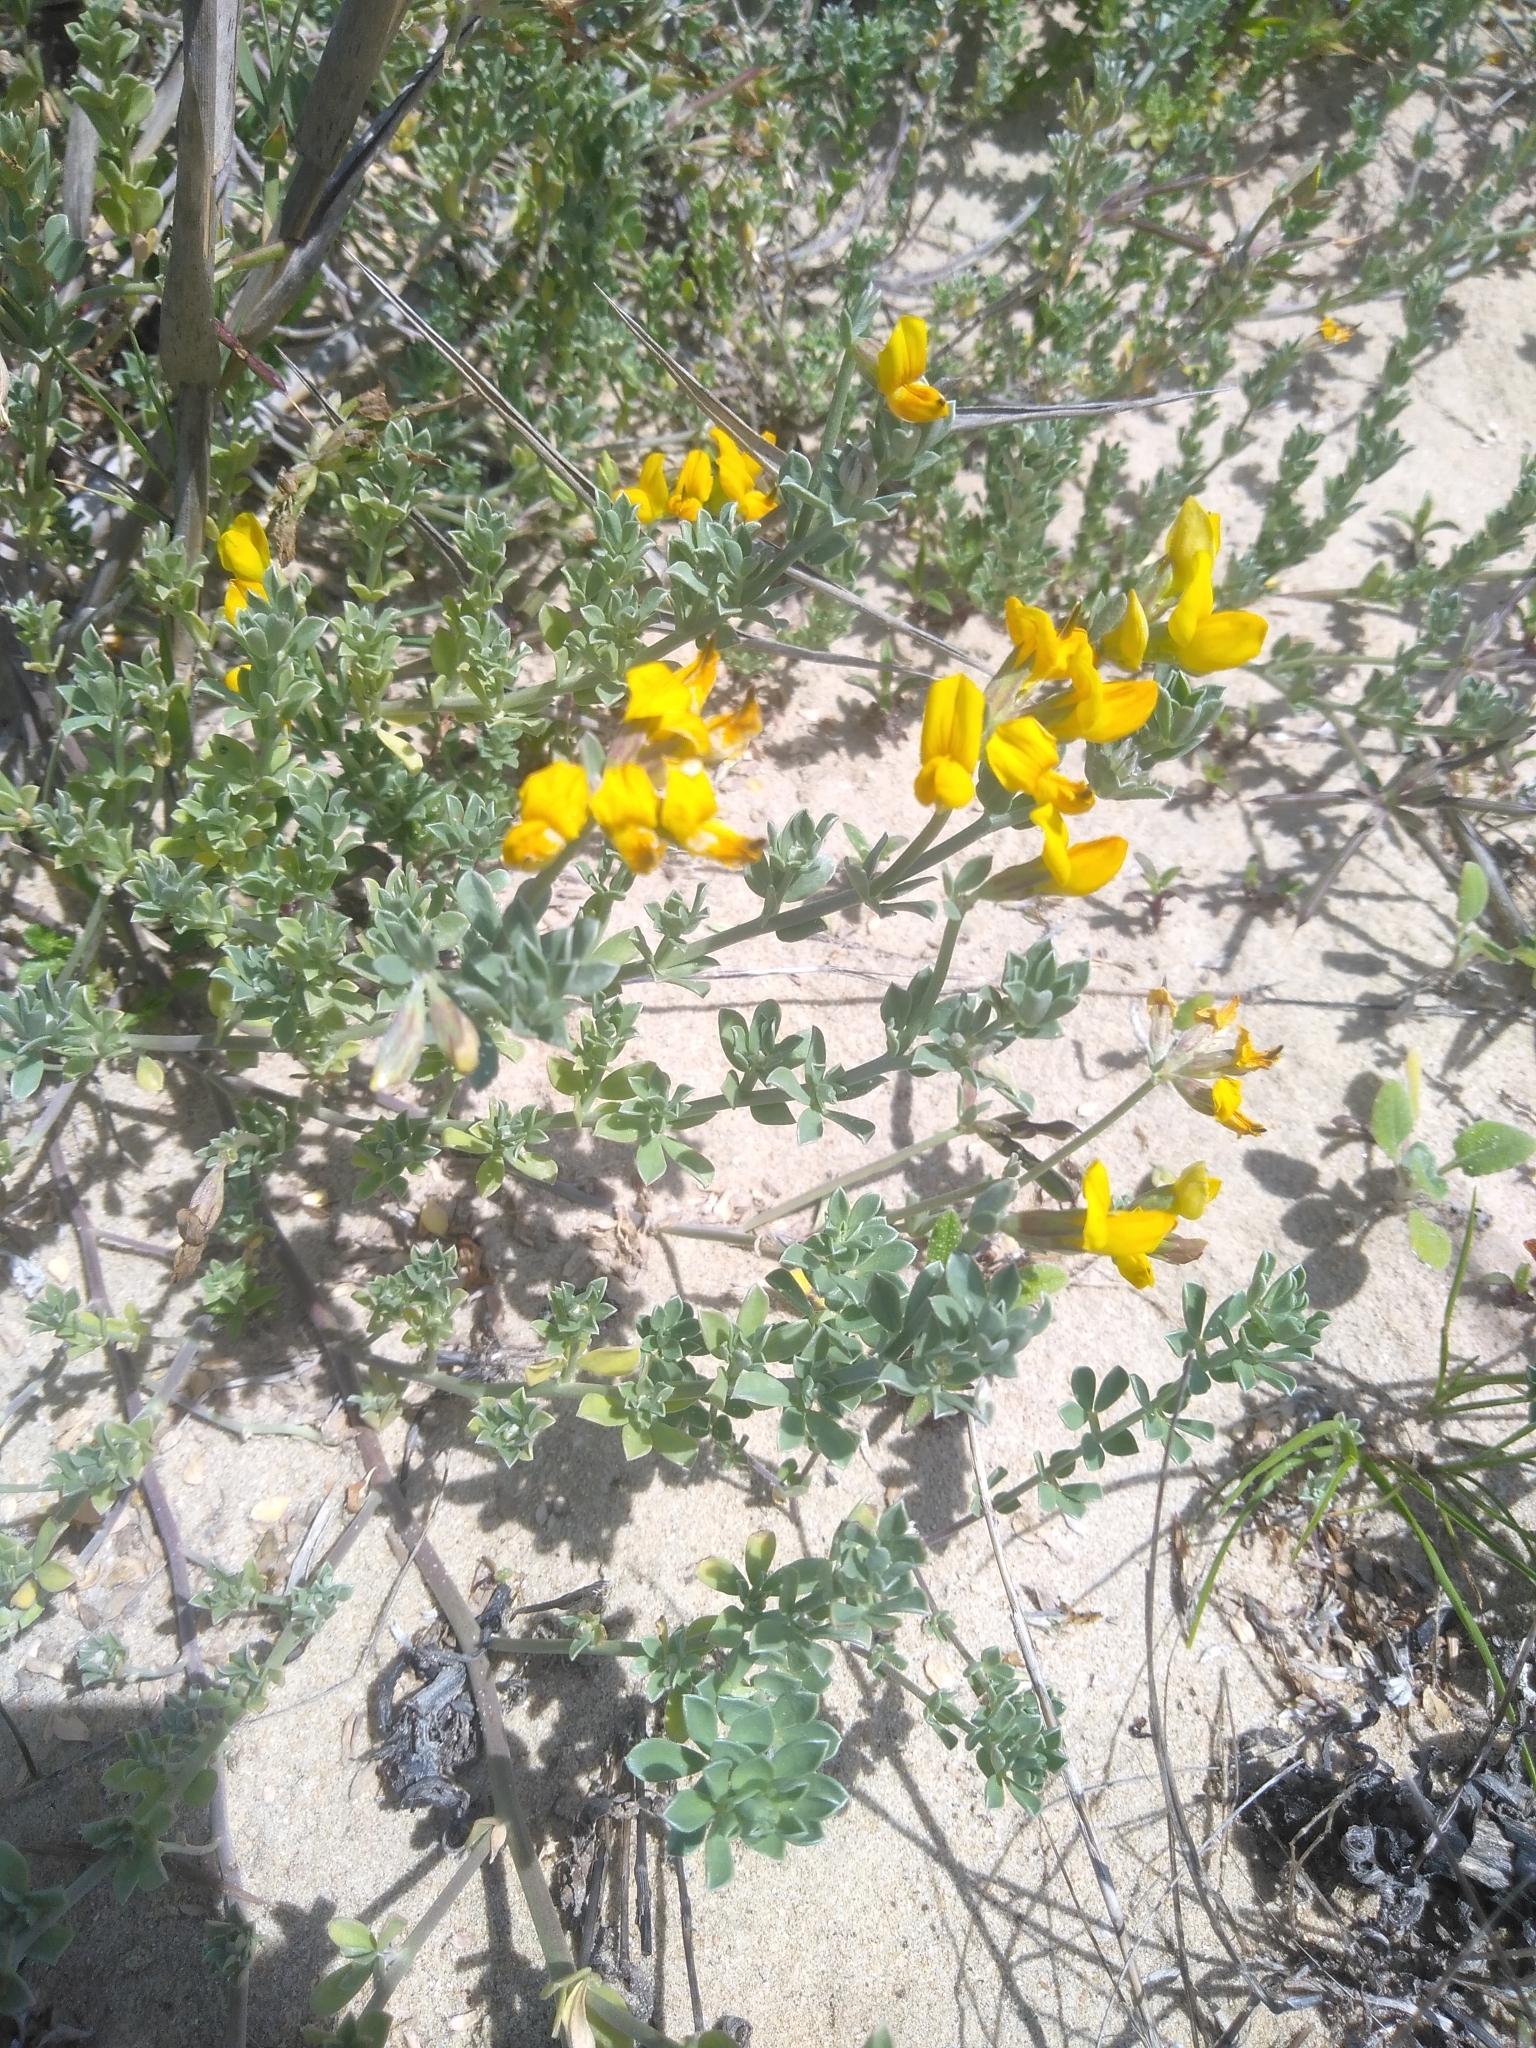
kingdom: Plantae
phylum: Tracheophyta
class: Magnoliopsida
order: Fabales
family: Fabaceae
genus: Lotus
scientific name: Lotus creticus
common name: Cretan bird's-foot trefoil
